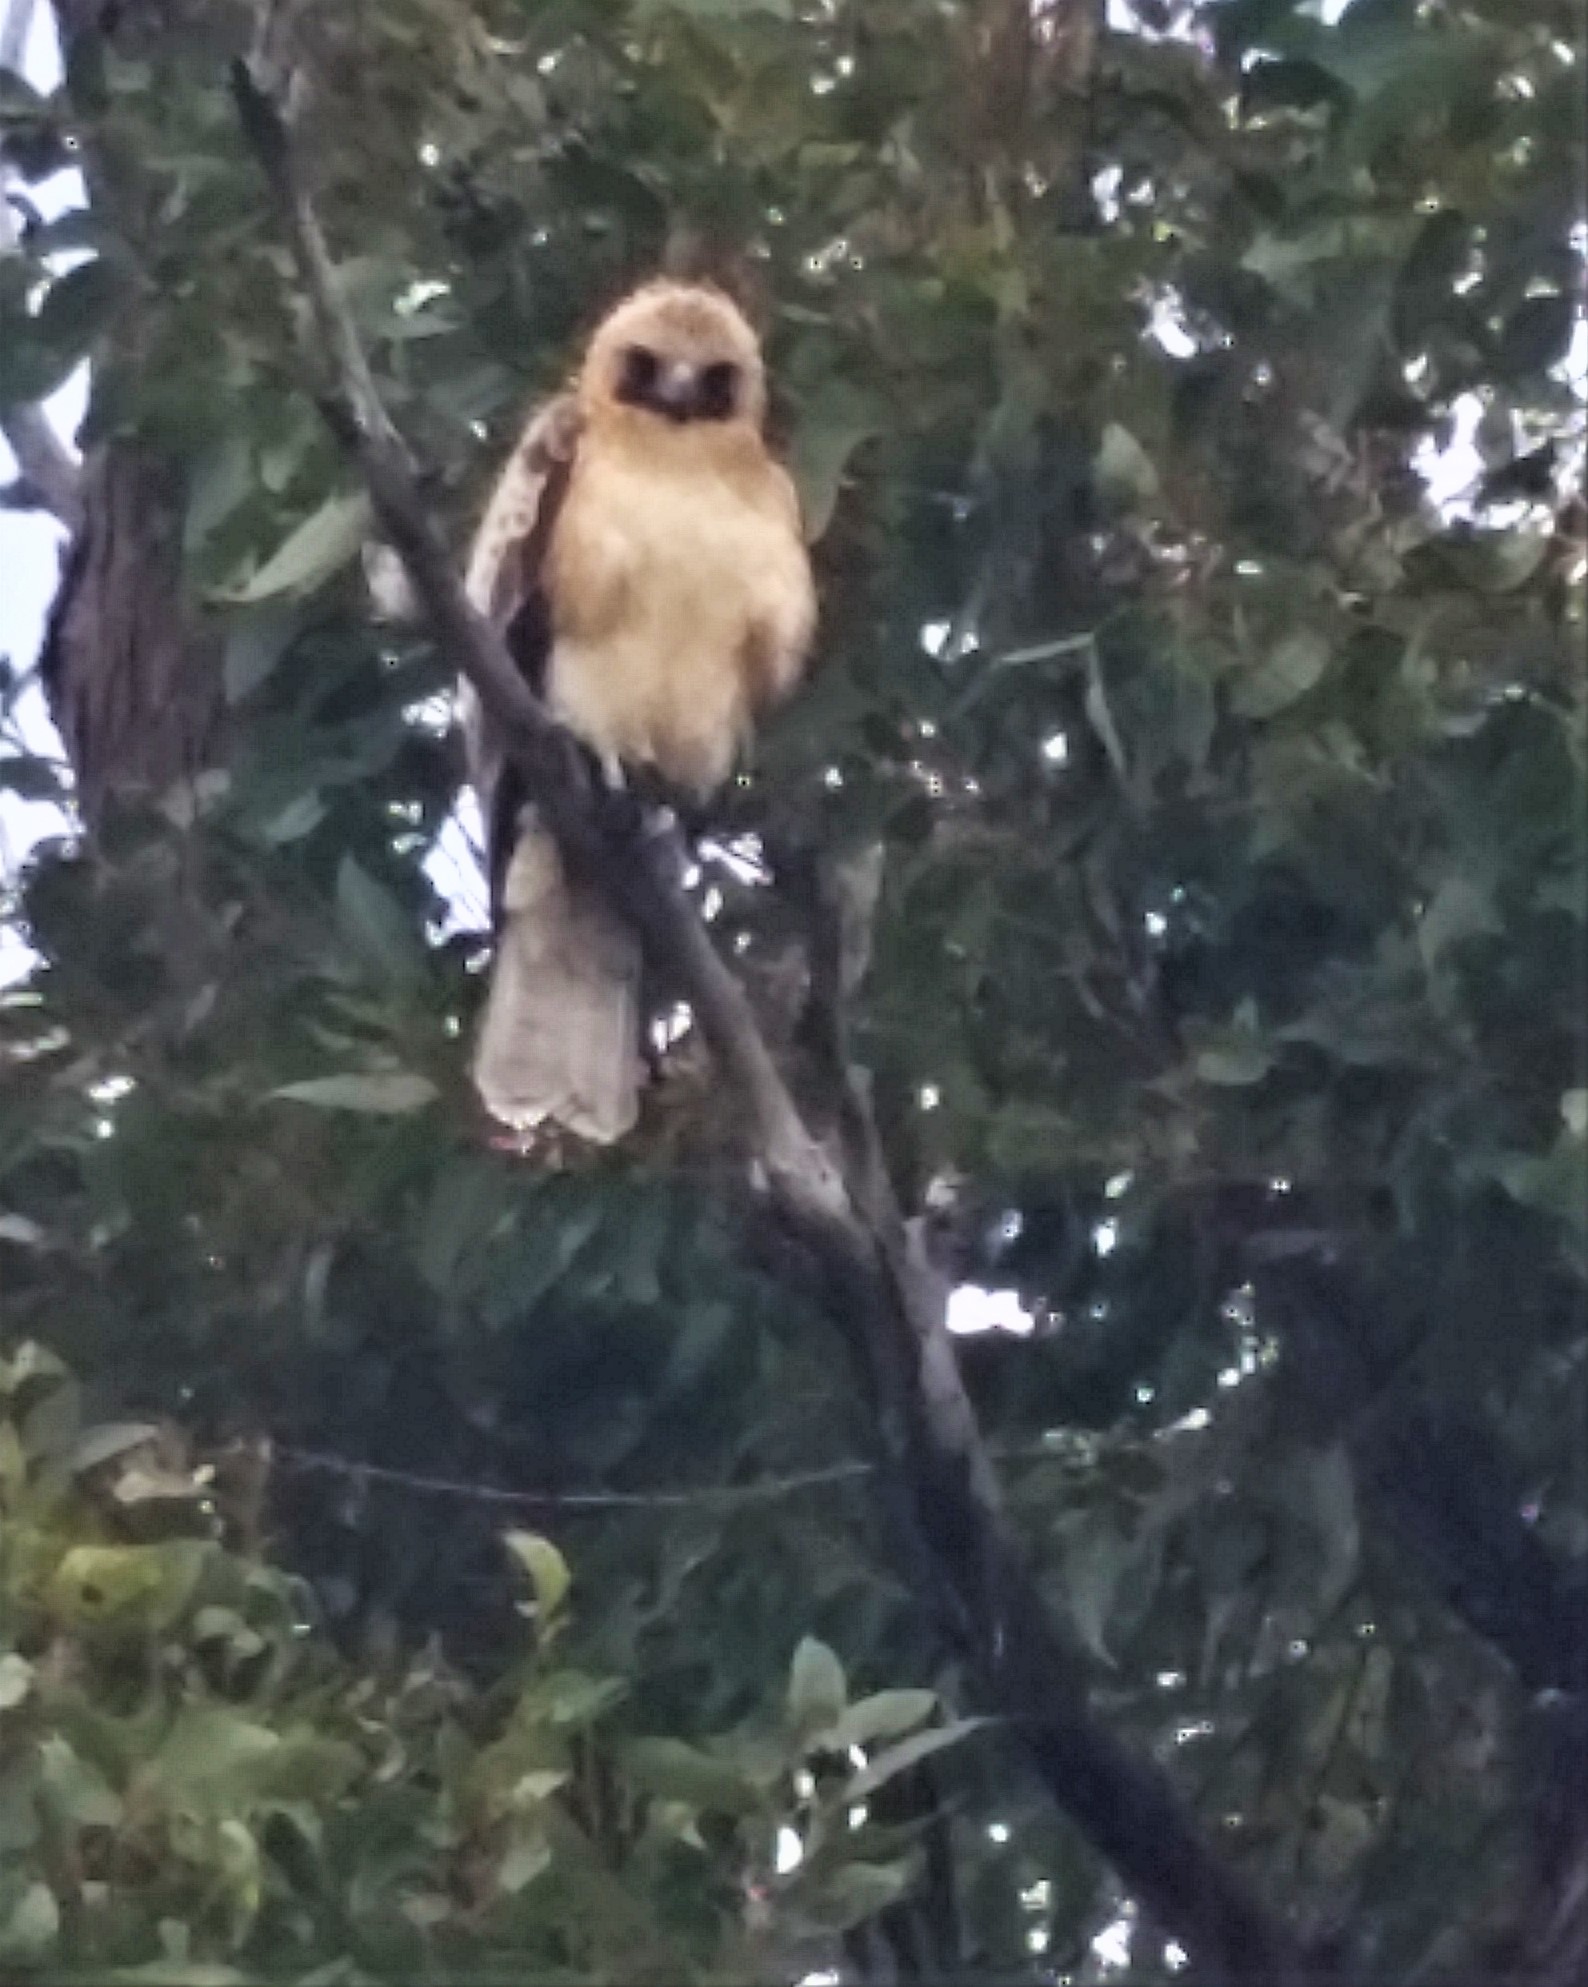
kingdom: Animalia
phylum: Chordata
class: Aves
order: Accipitriformes
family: Accipitridae
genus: Hieraaetus
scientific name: Hieraaetus morphnoides
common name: Little eagle
